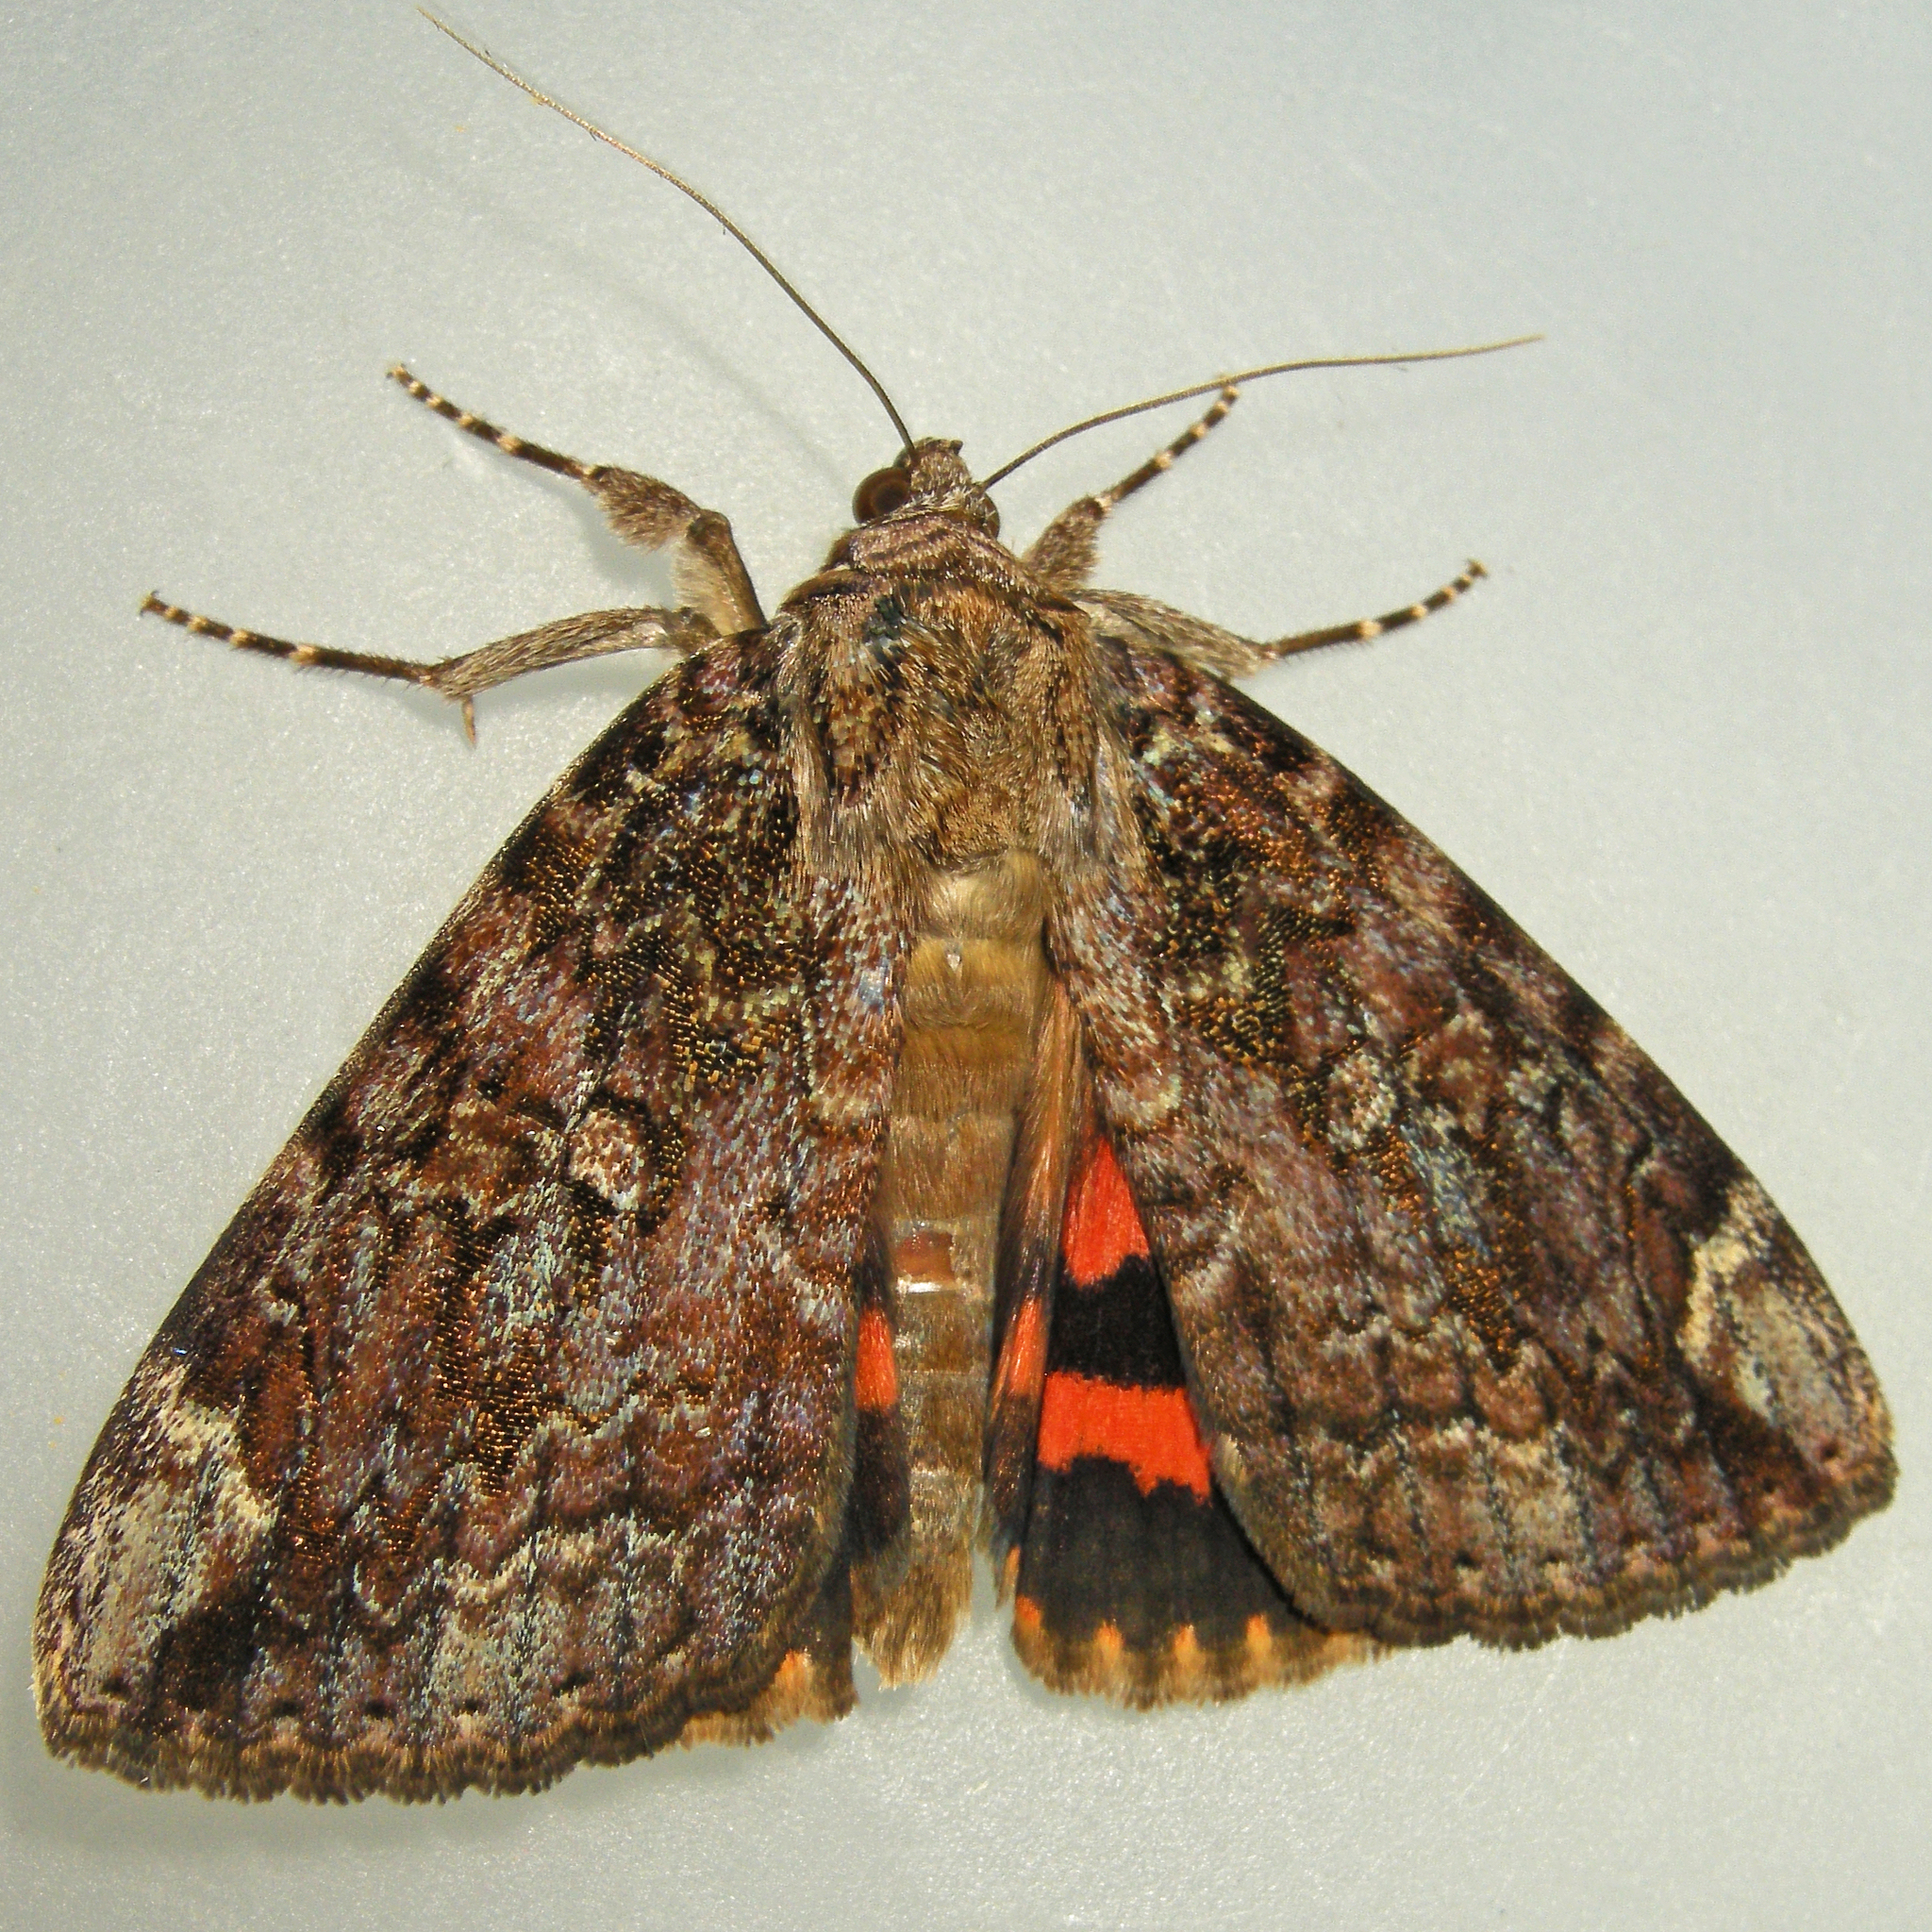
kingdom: Animalia
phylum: Arthropoda
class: Insecta
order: Lepidoptera
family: Erebidae
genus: Catocala
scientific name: Catocala innubens
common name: Betrothed underwing
